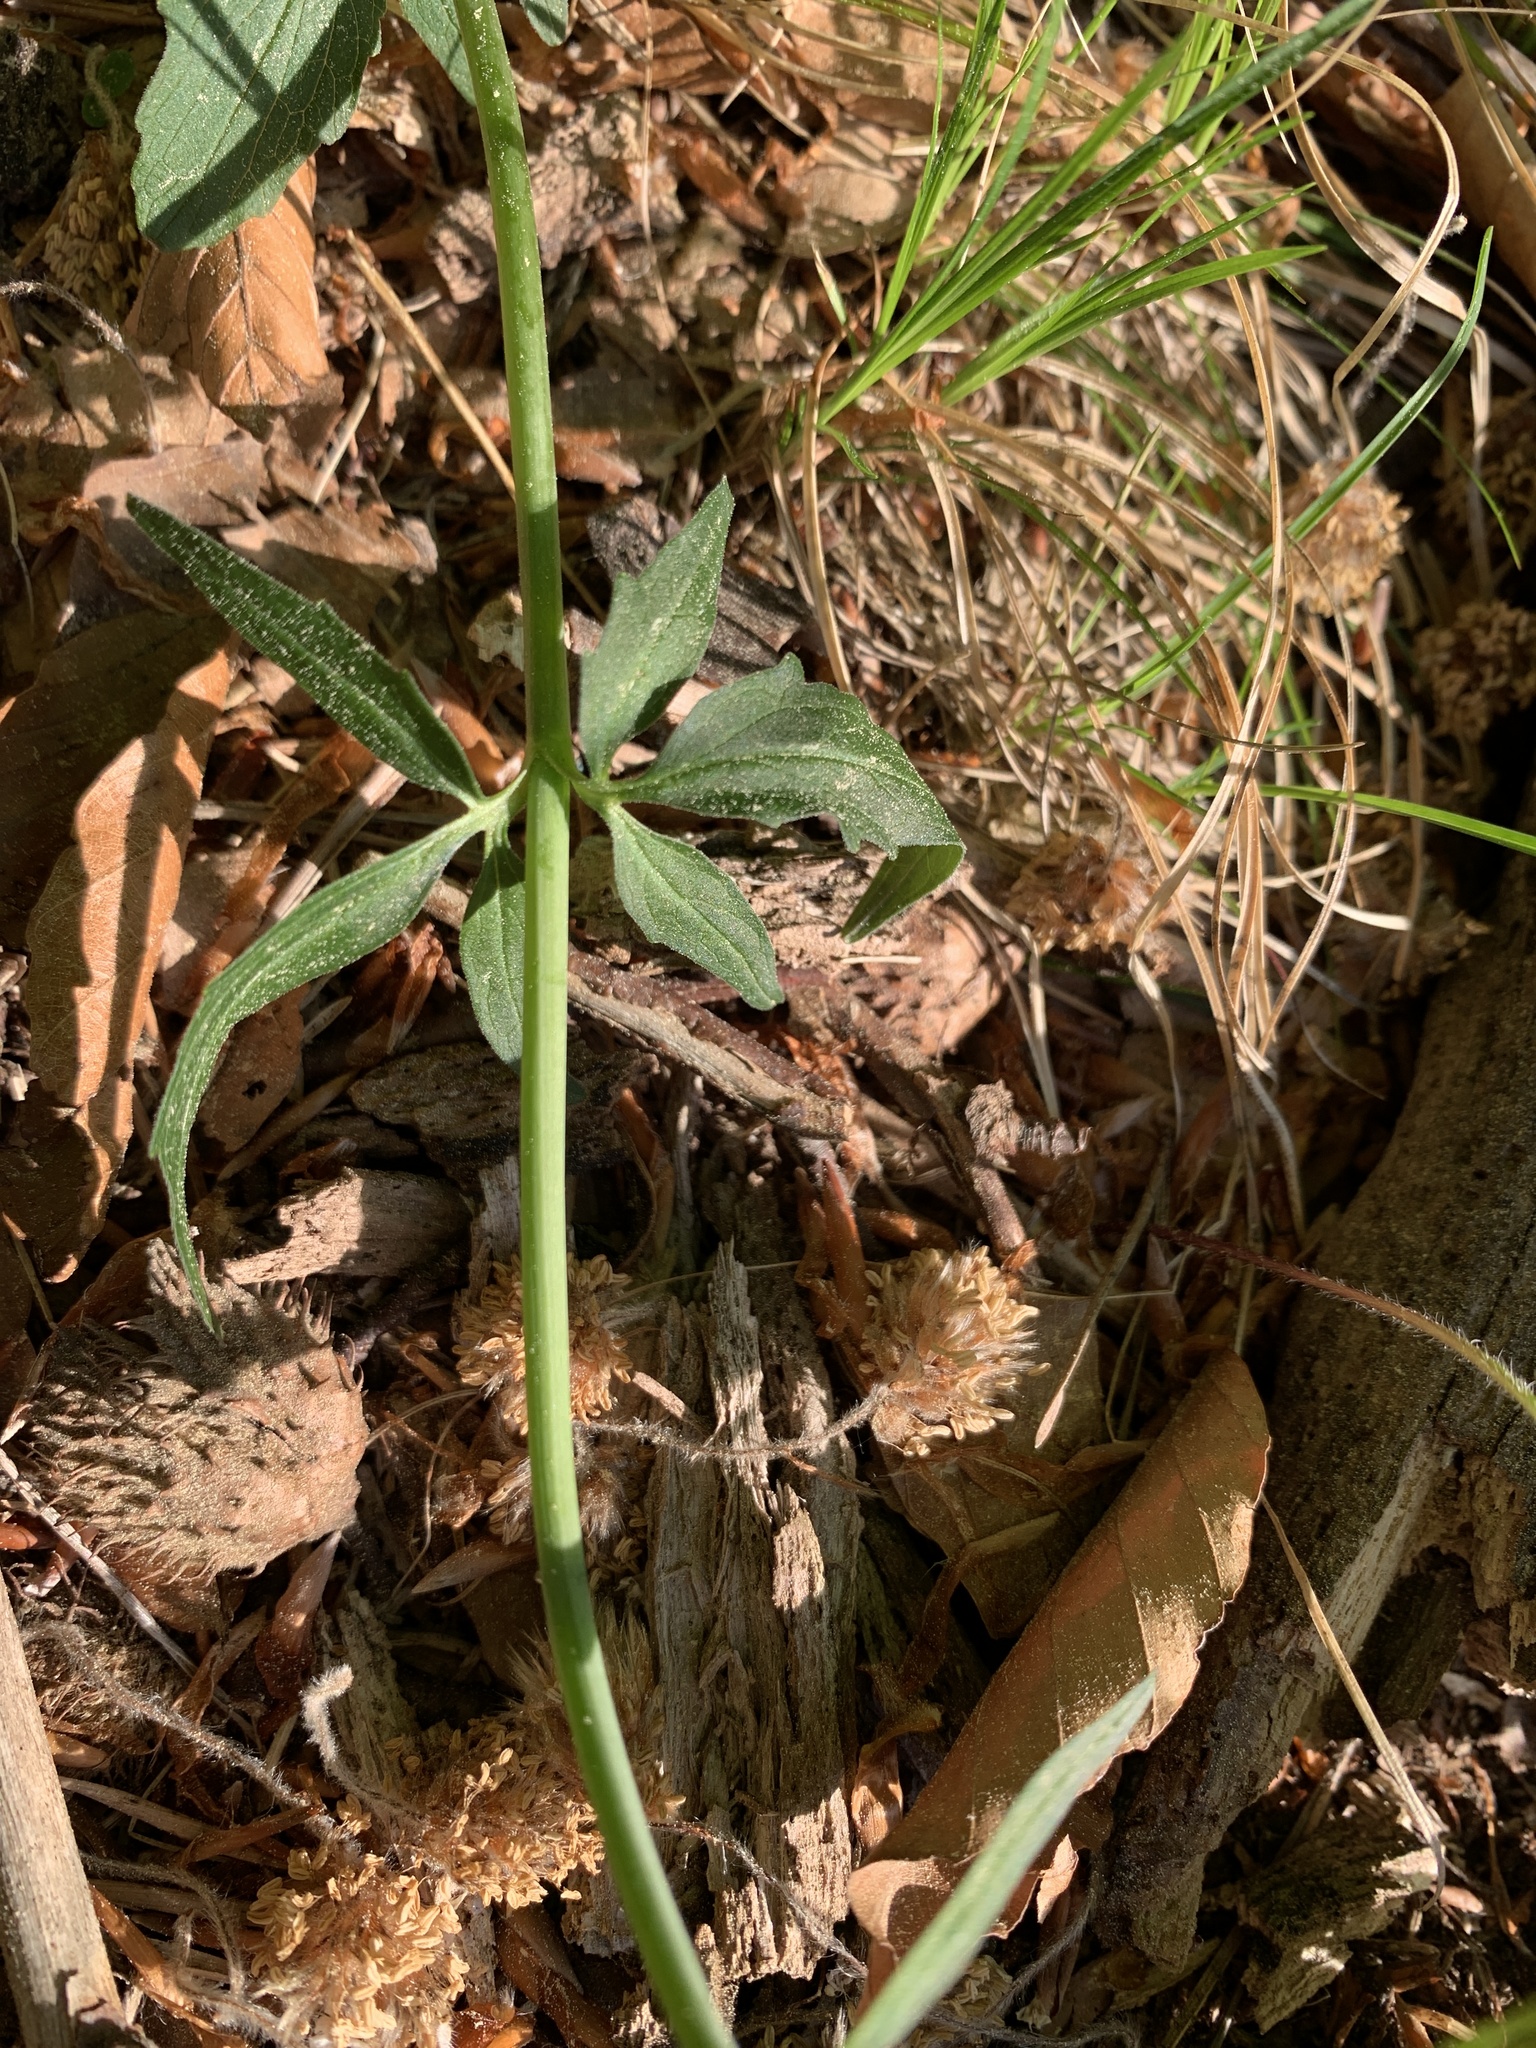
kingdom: Plantae
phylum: Tracheophyta
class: Magnoliopsida
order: Dipsacales
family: Caprifoliaceae
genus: Valeriana
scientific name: Valeriana tripteris
